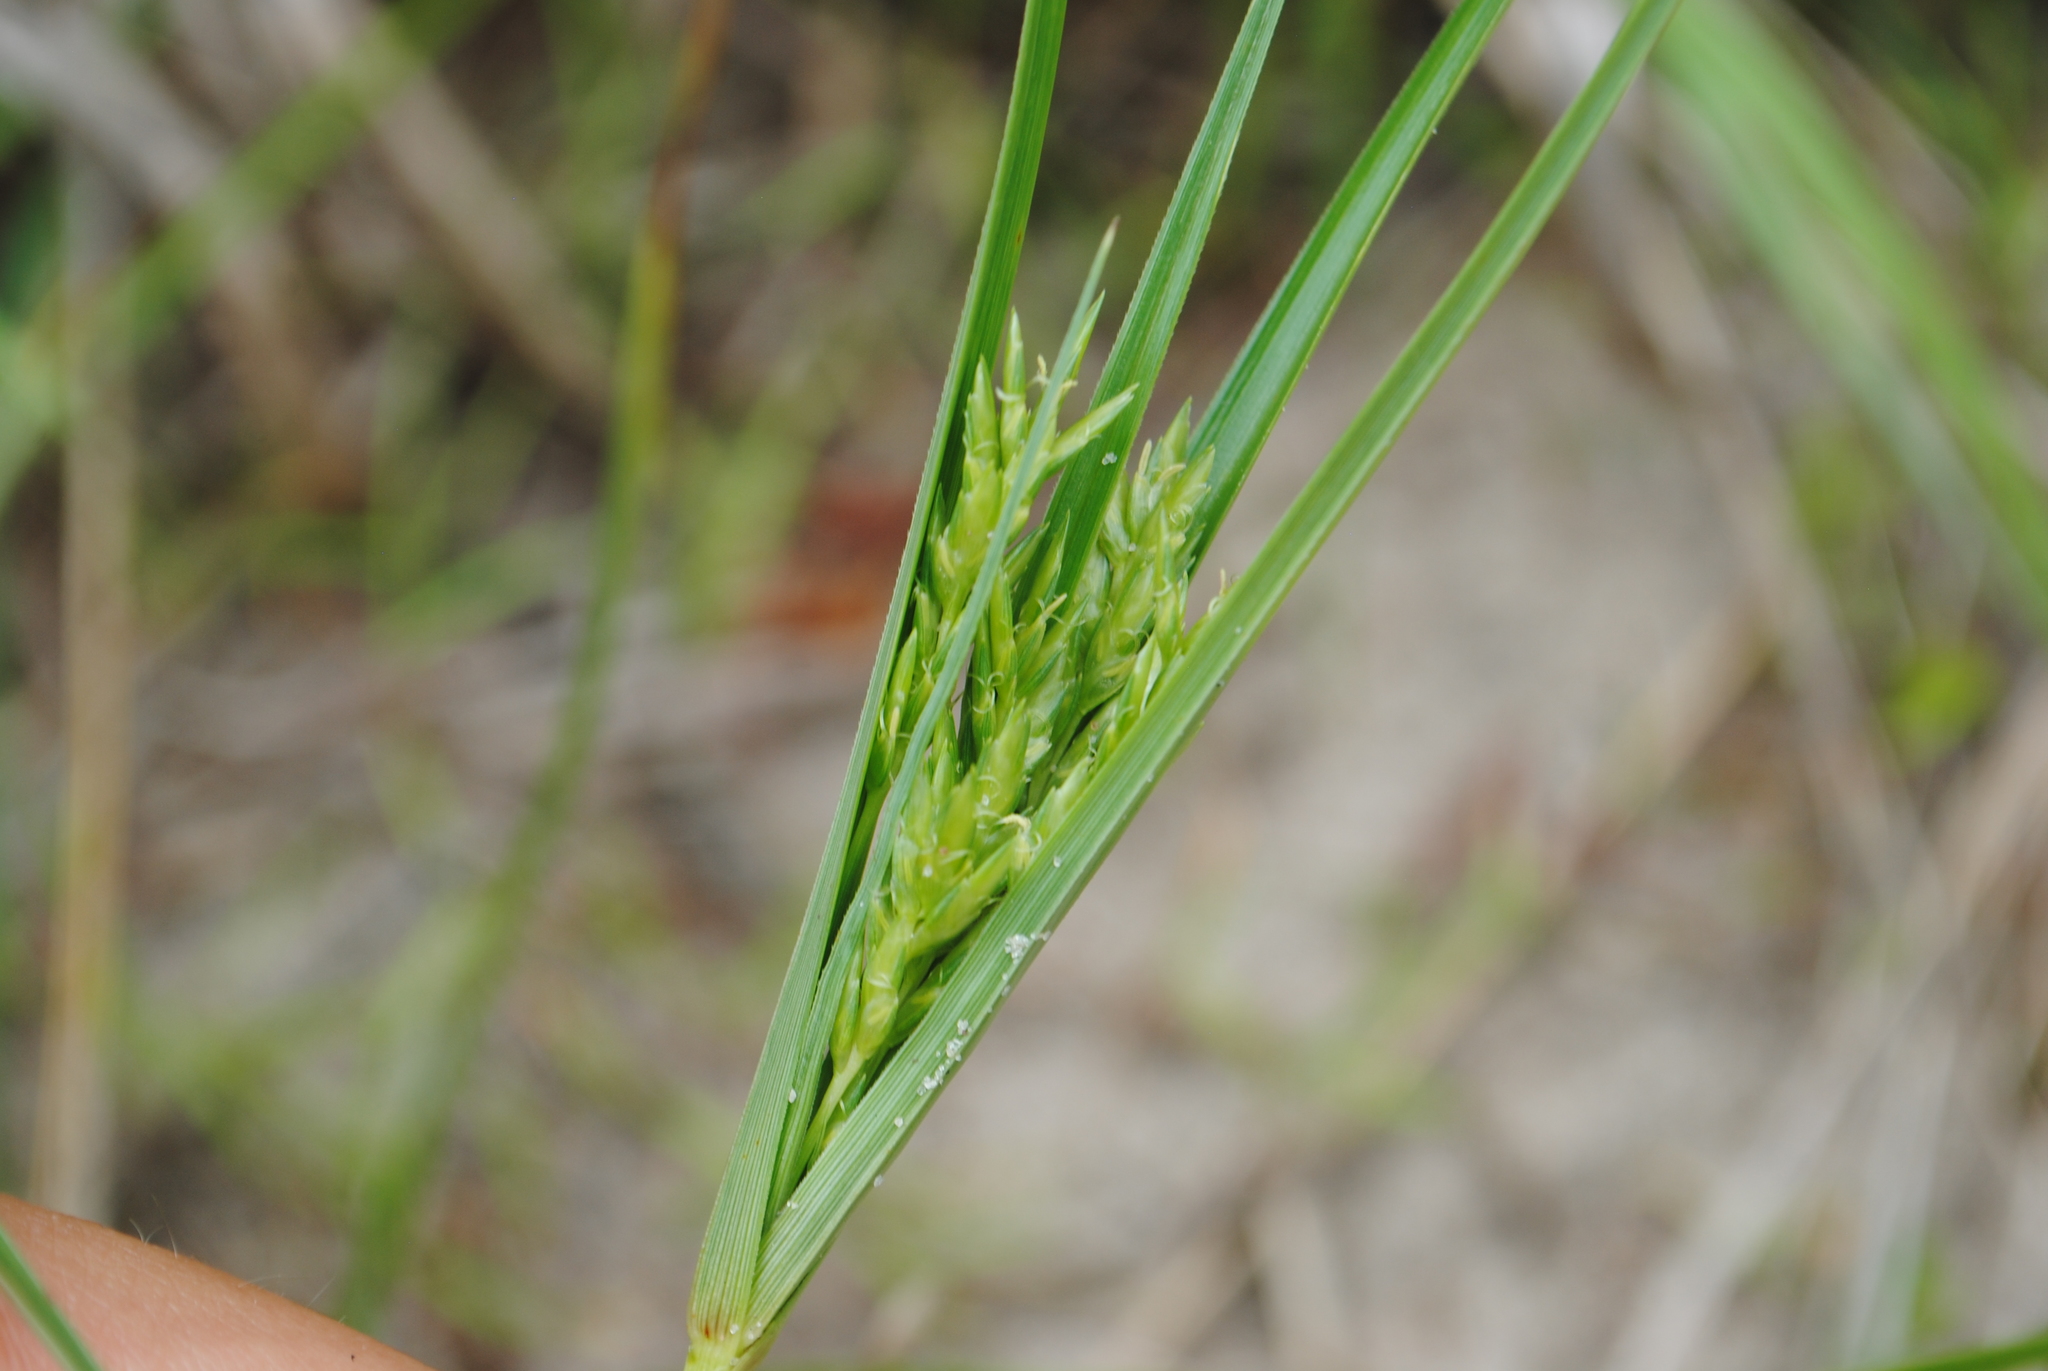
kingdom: Plantae
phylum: Tracheophyta
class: Liliopsida
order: Poales
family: Cyperaceae
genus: Cyperus
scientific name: Cyperus schweinitzii
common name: Schweinitz's cyperus
